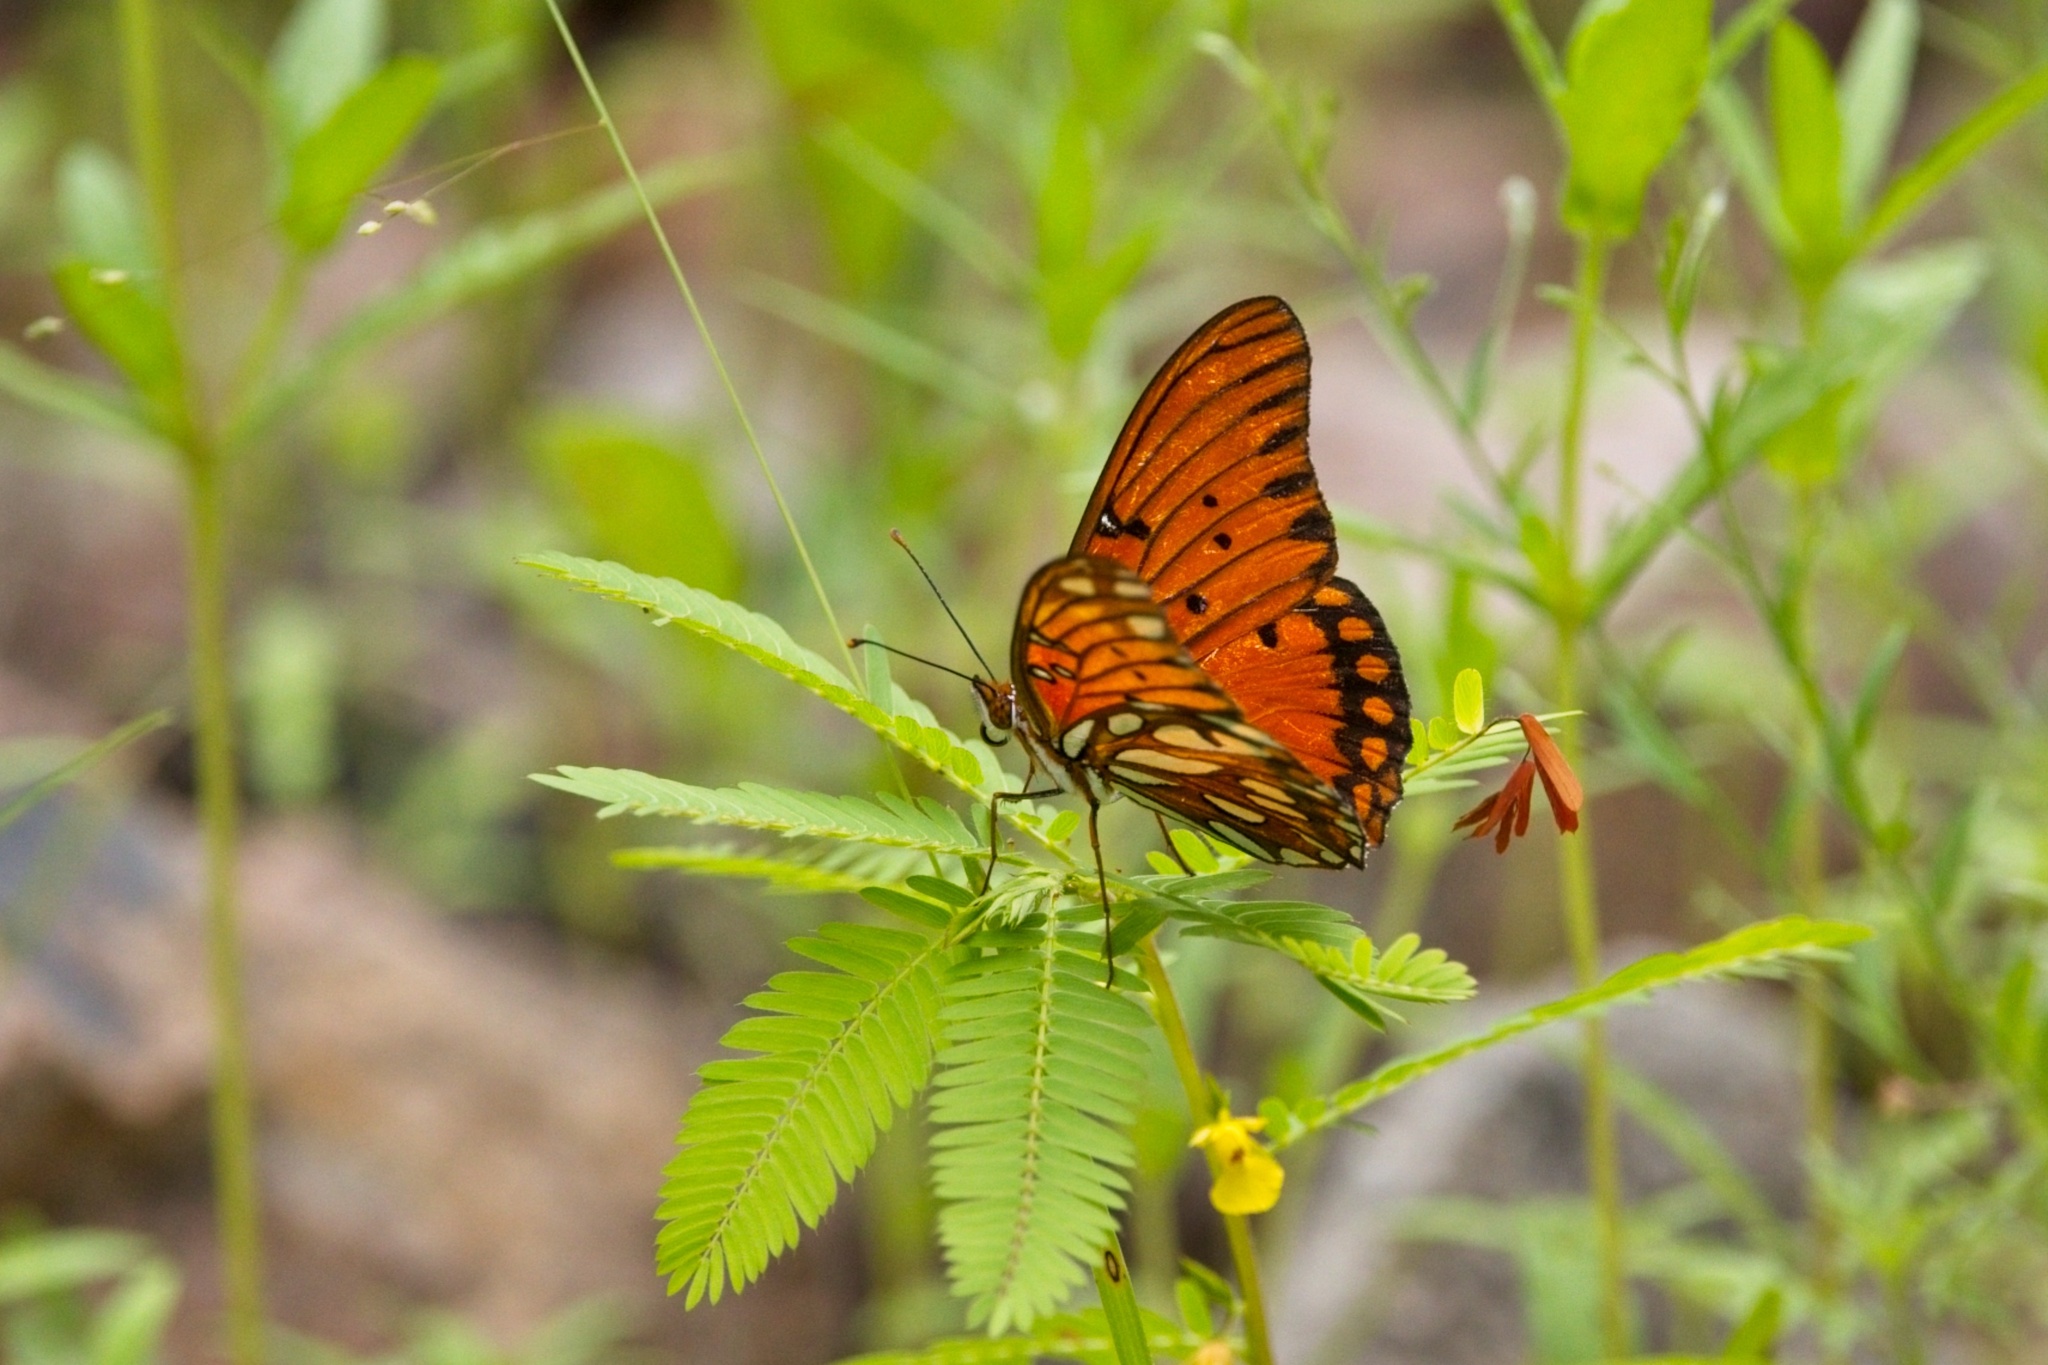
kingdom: Animalia
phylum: Arthropoda
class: Insecta
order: Lepidoptera
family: Nymphalidae
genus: Dione
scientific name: Dione vanillae
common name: Gulf fritillary
